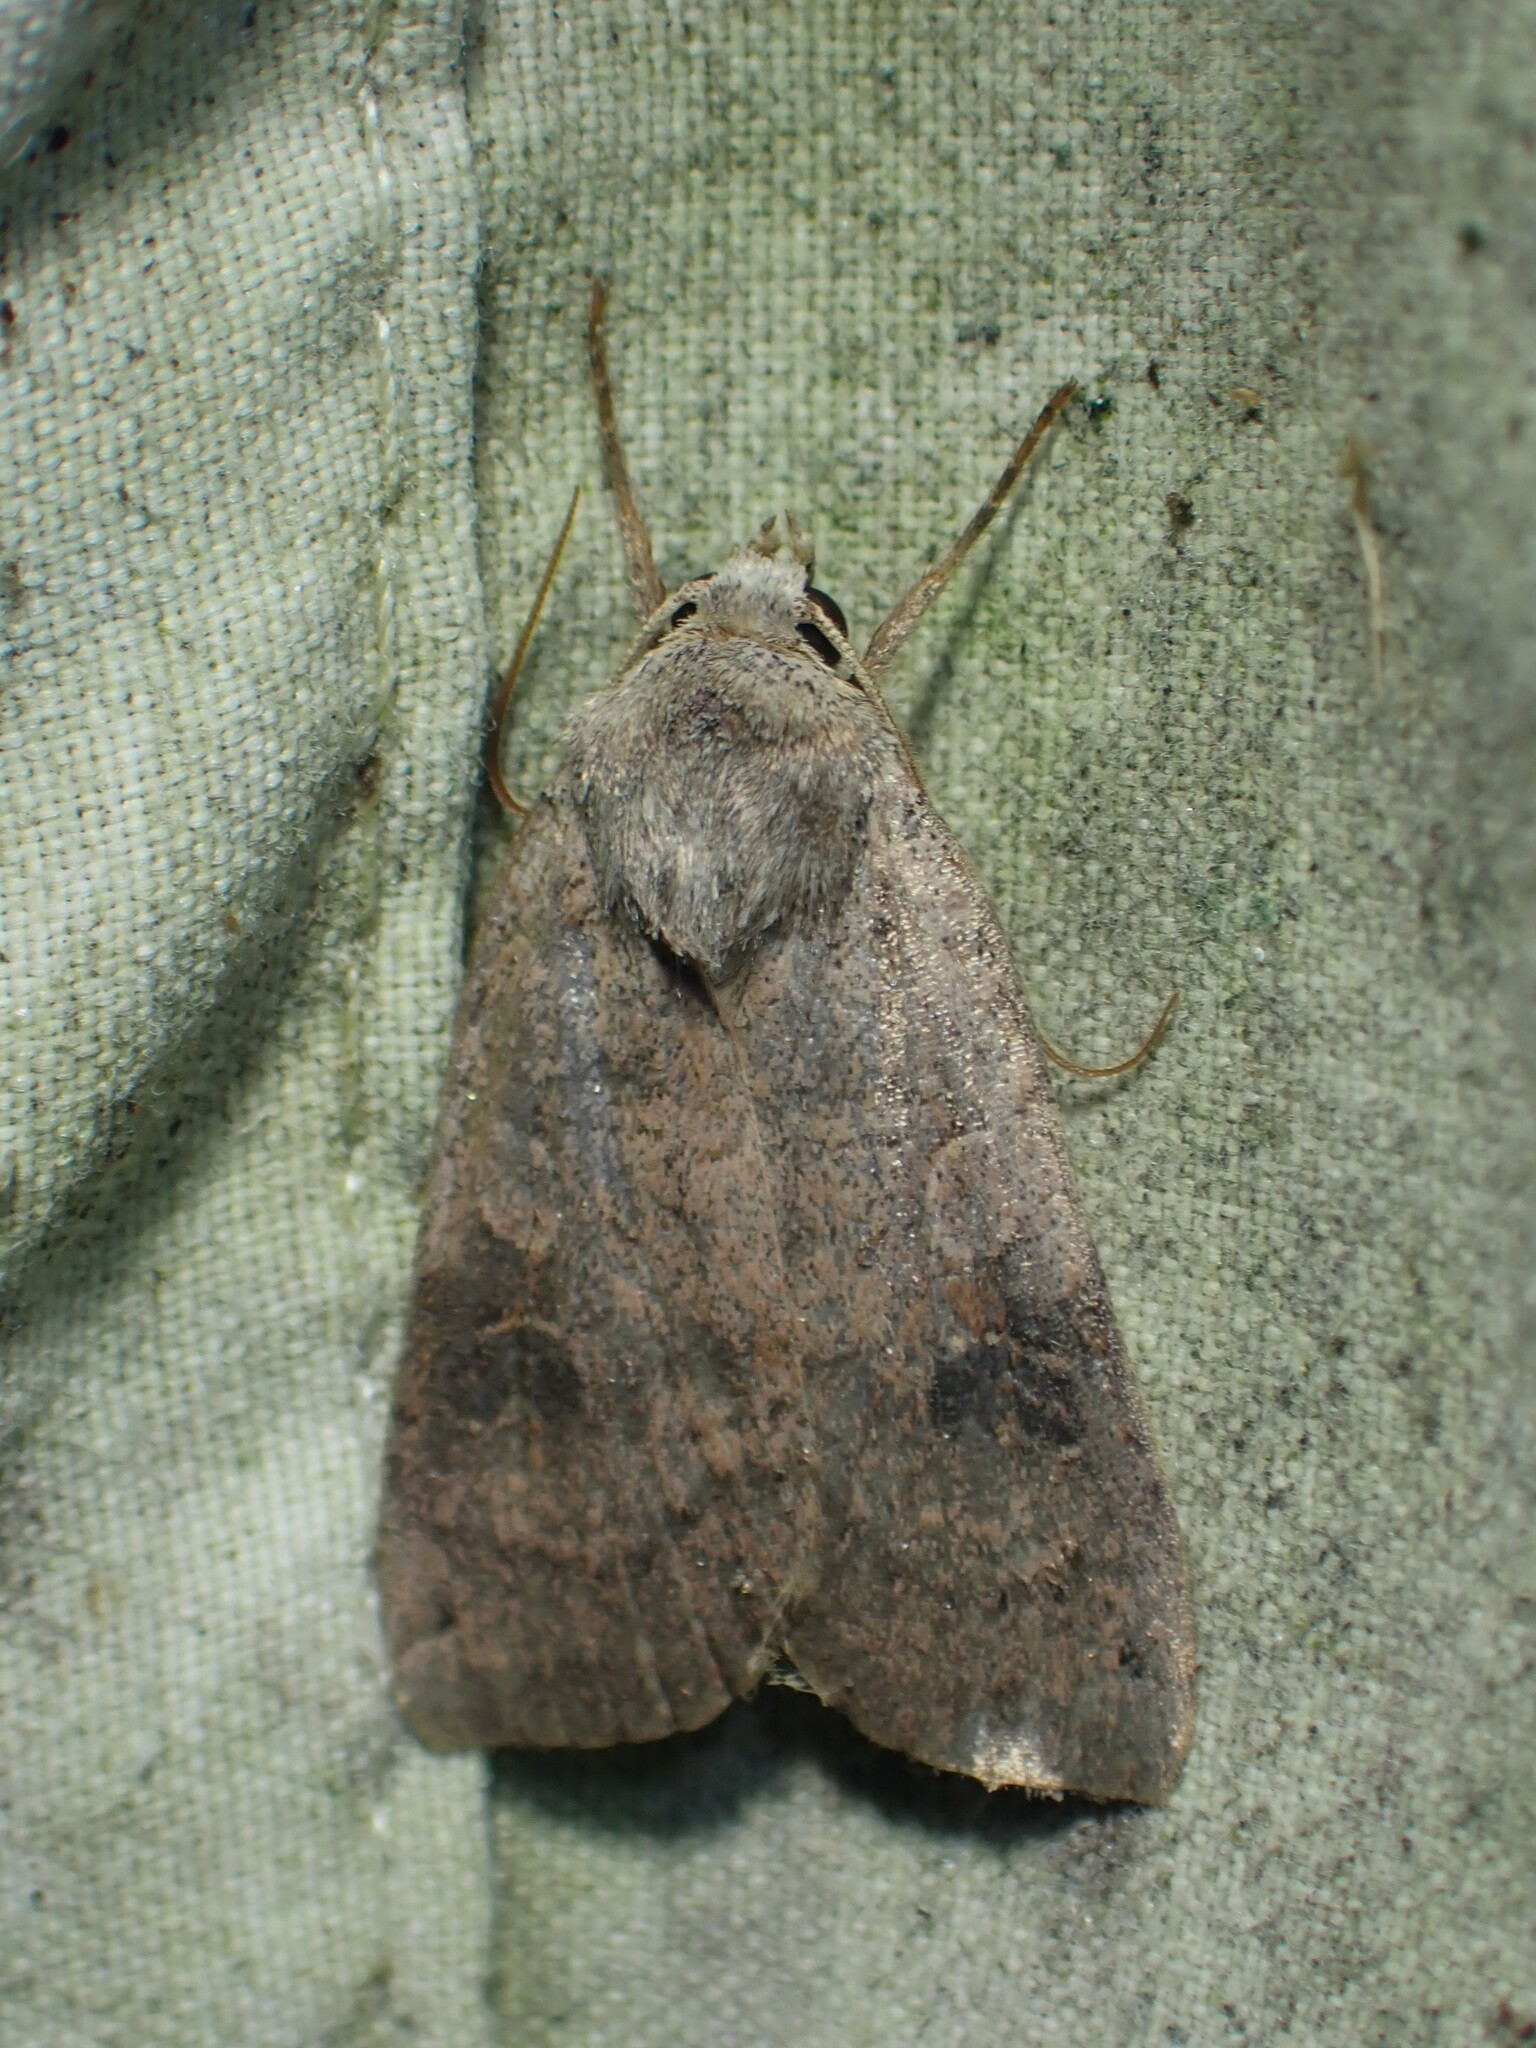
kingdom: Animalia
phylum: Arthropoda
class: Insecta
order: Lepidoptera
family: Noctuidae
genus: Xestia
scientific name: Xestia smithii
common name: Smith's dart
